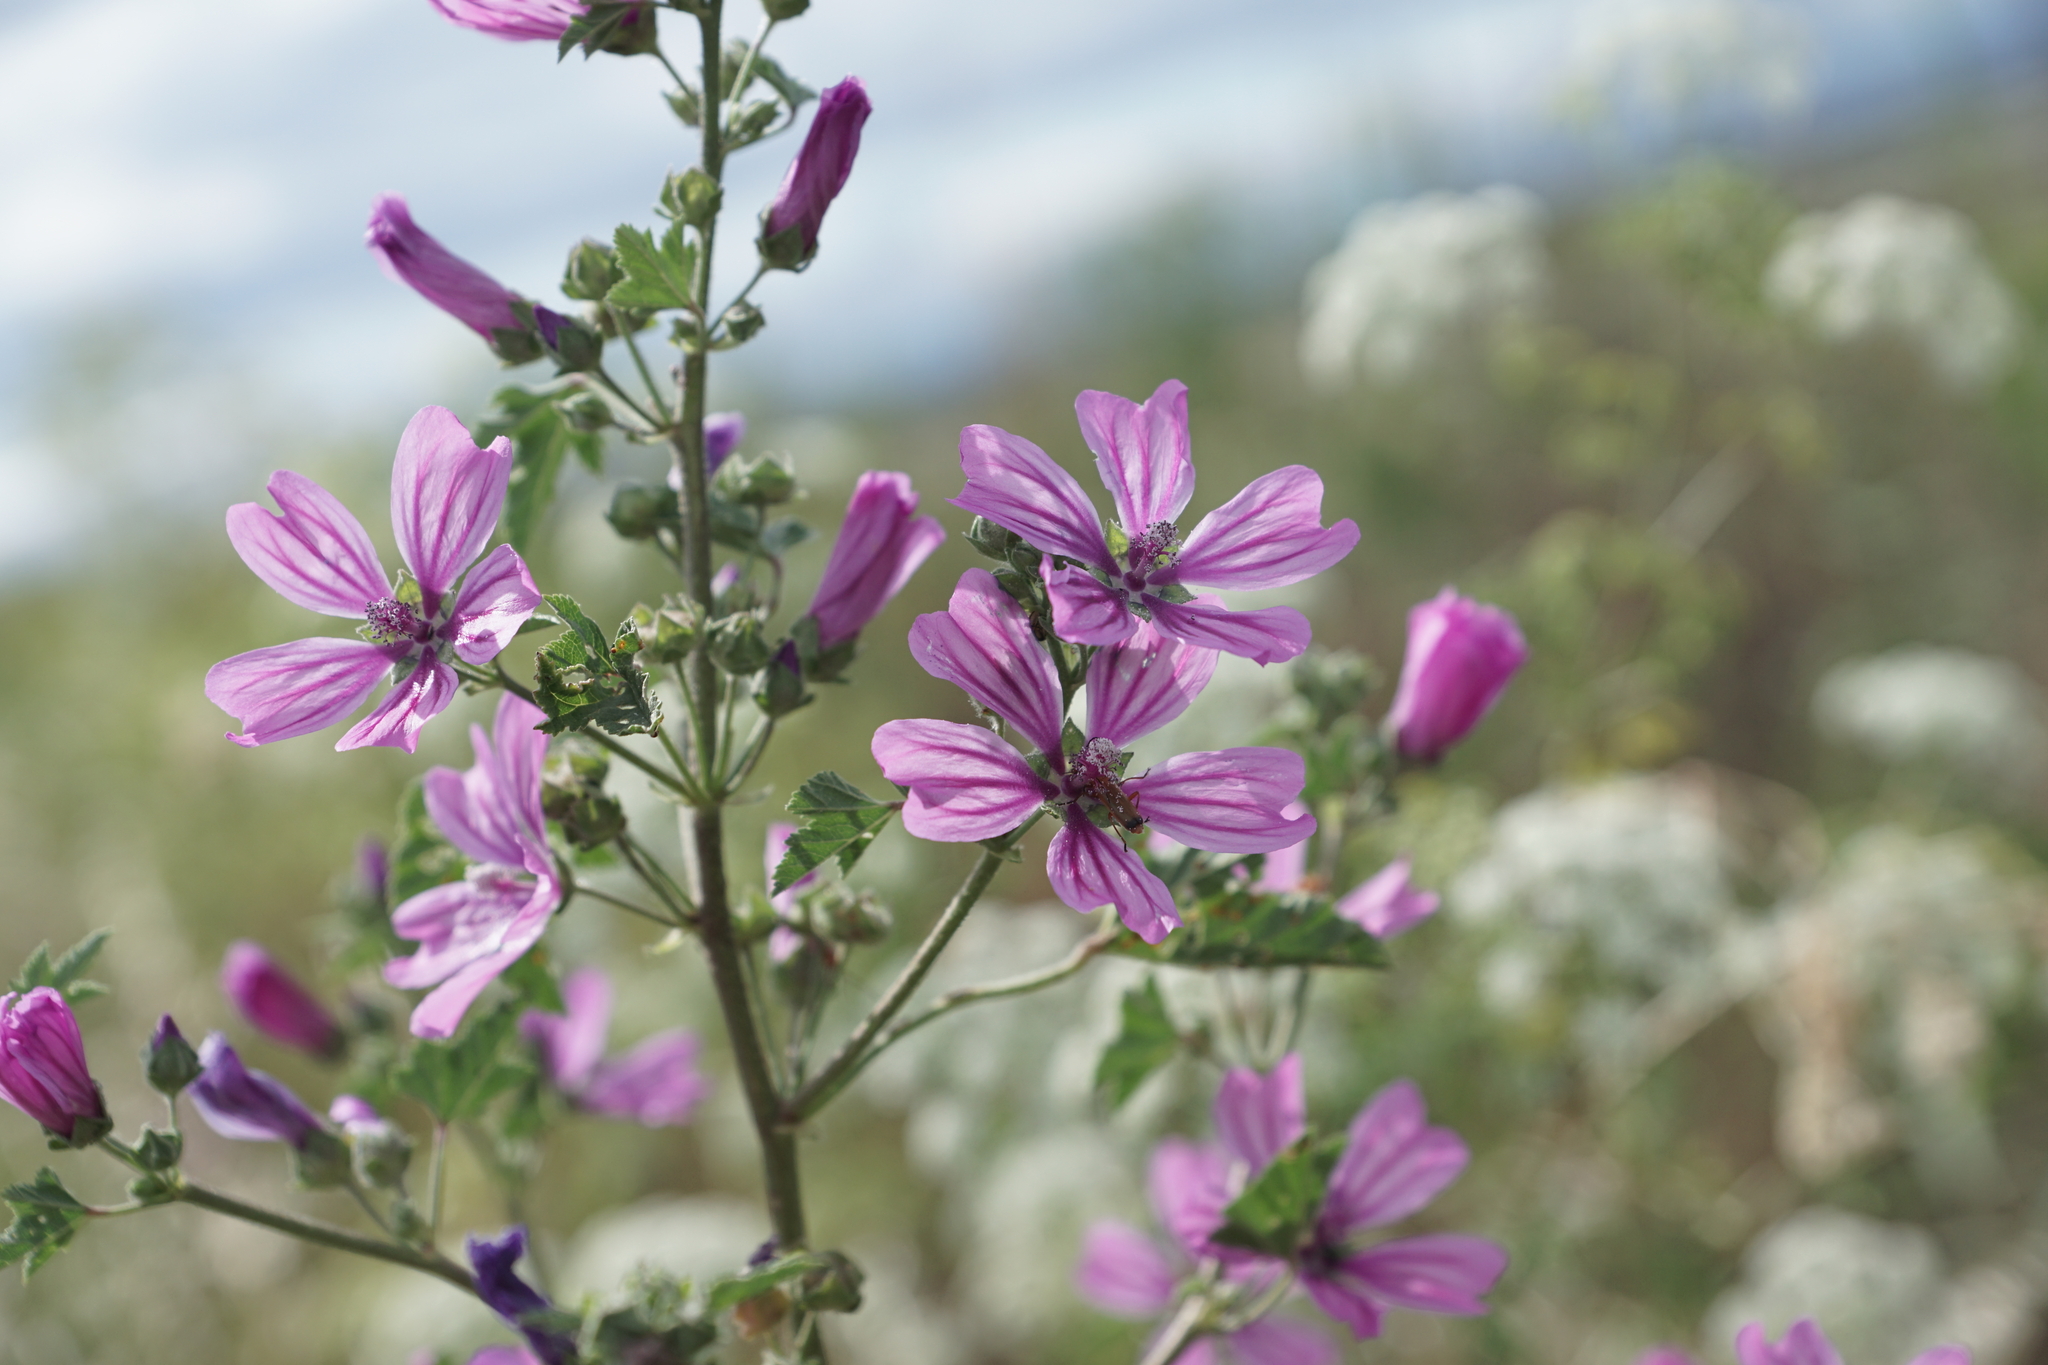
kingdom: Plantae
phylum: Tracheophyta
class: Magnoliopsida
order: Malvales
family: Malvaceae
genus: Malva
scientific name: Malva sylvestris
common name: Common mallow
